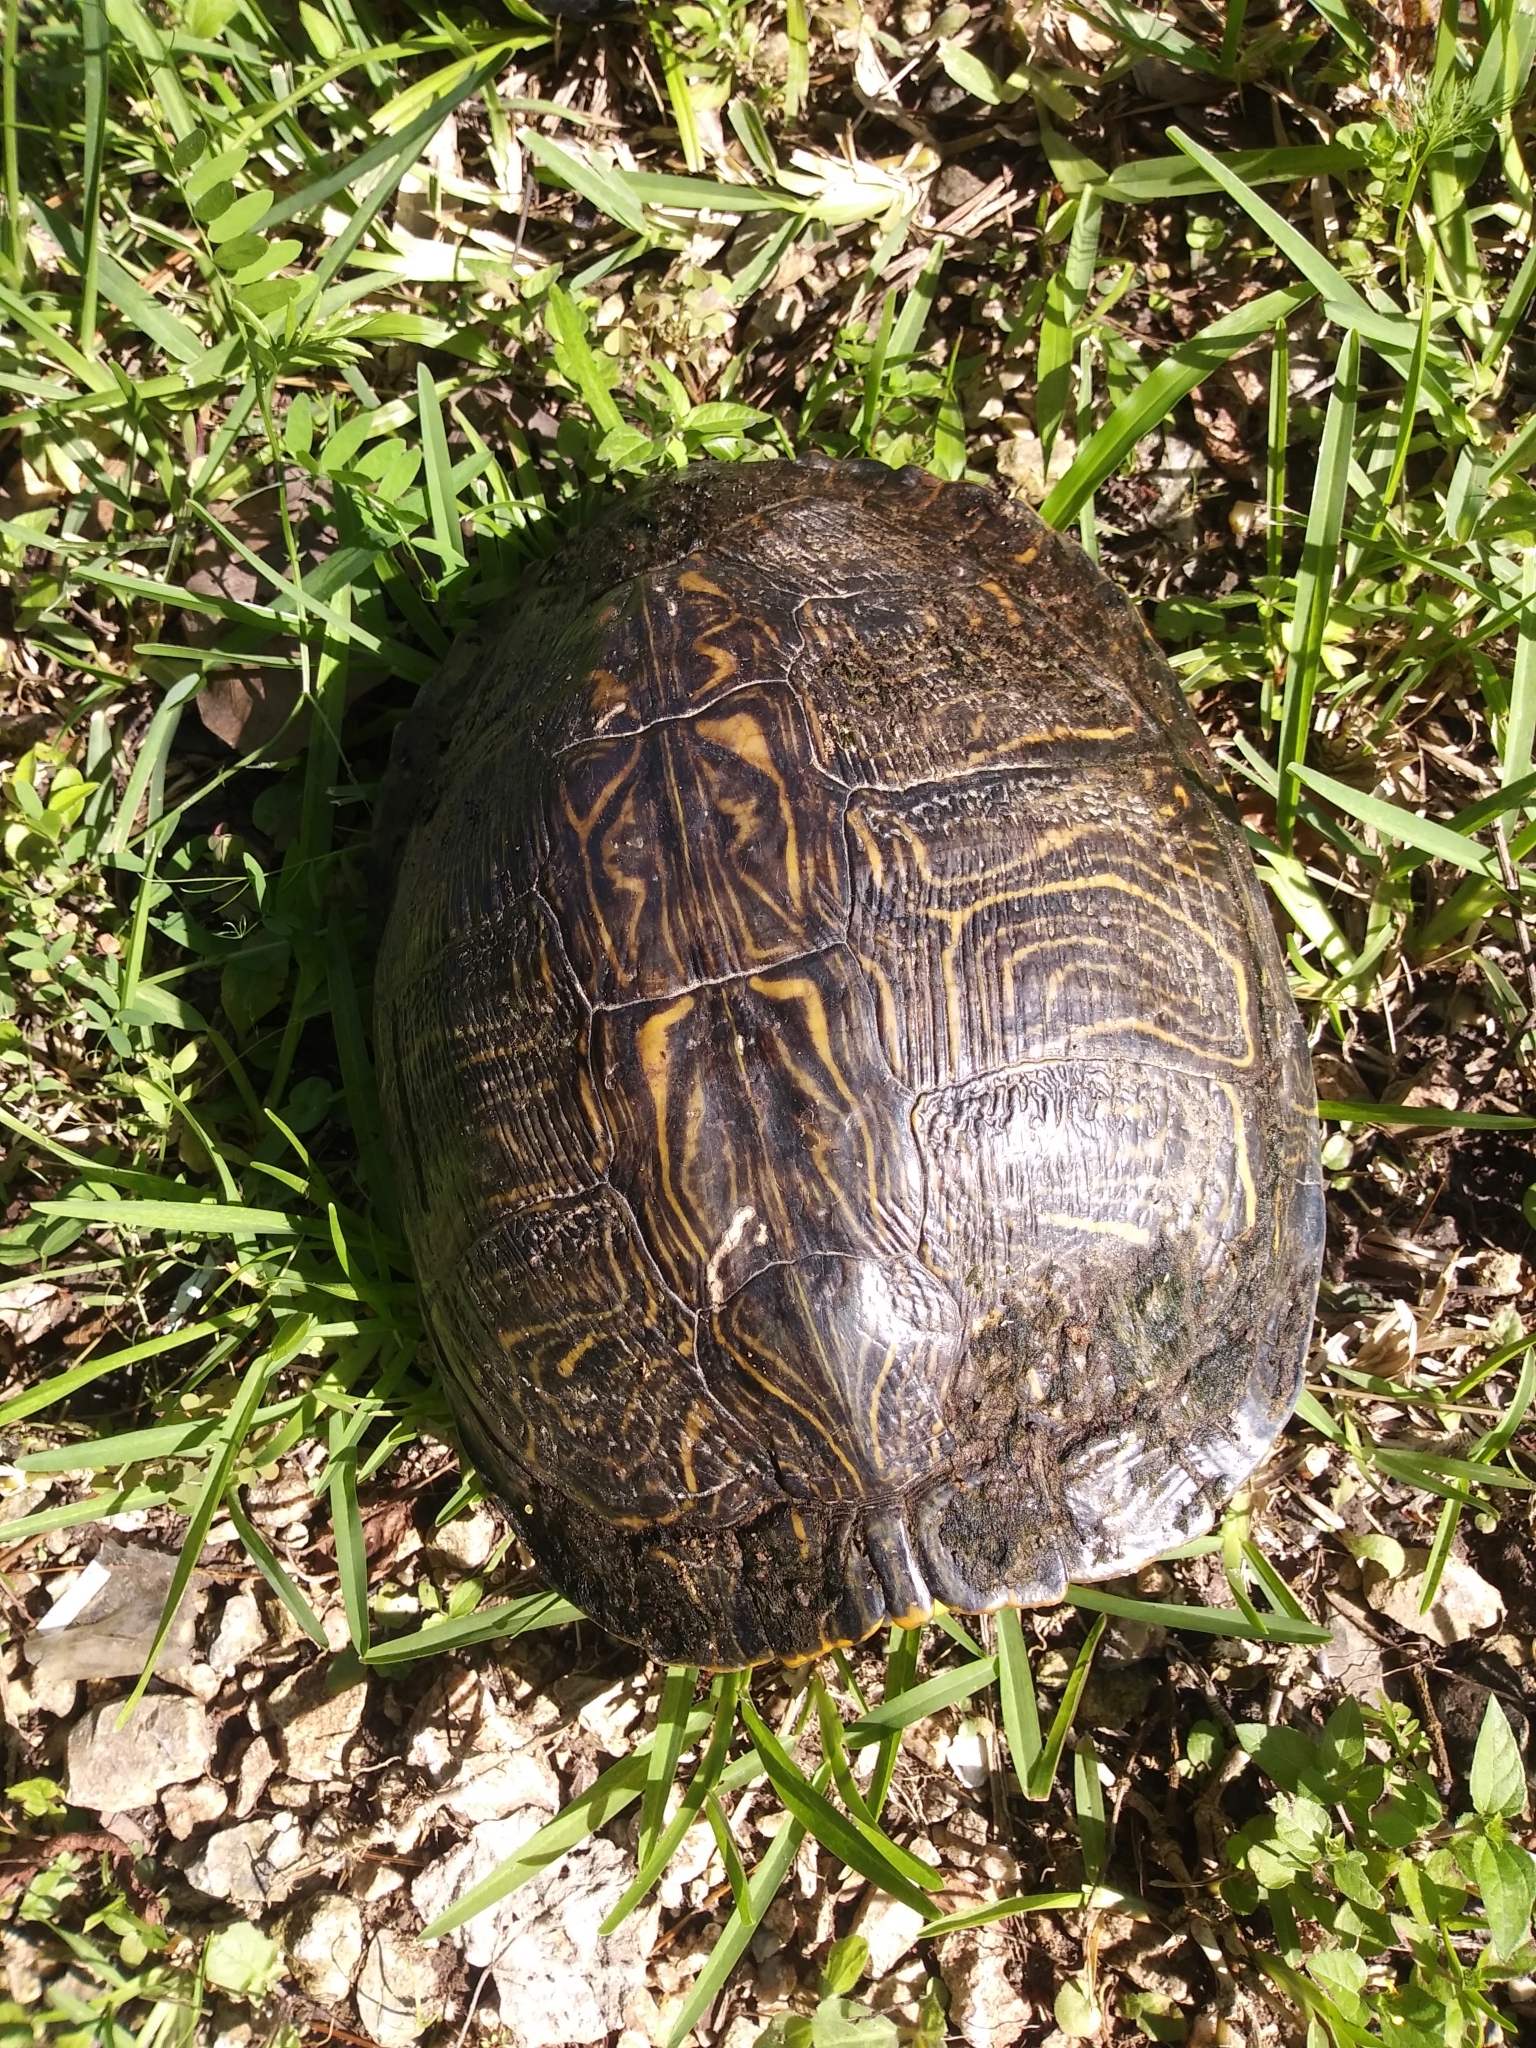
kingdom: Animalia
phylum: Chordata
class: Testudines
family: Emydidae
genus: Trachemys
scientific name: Trachemys scripta
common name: Slider
